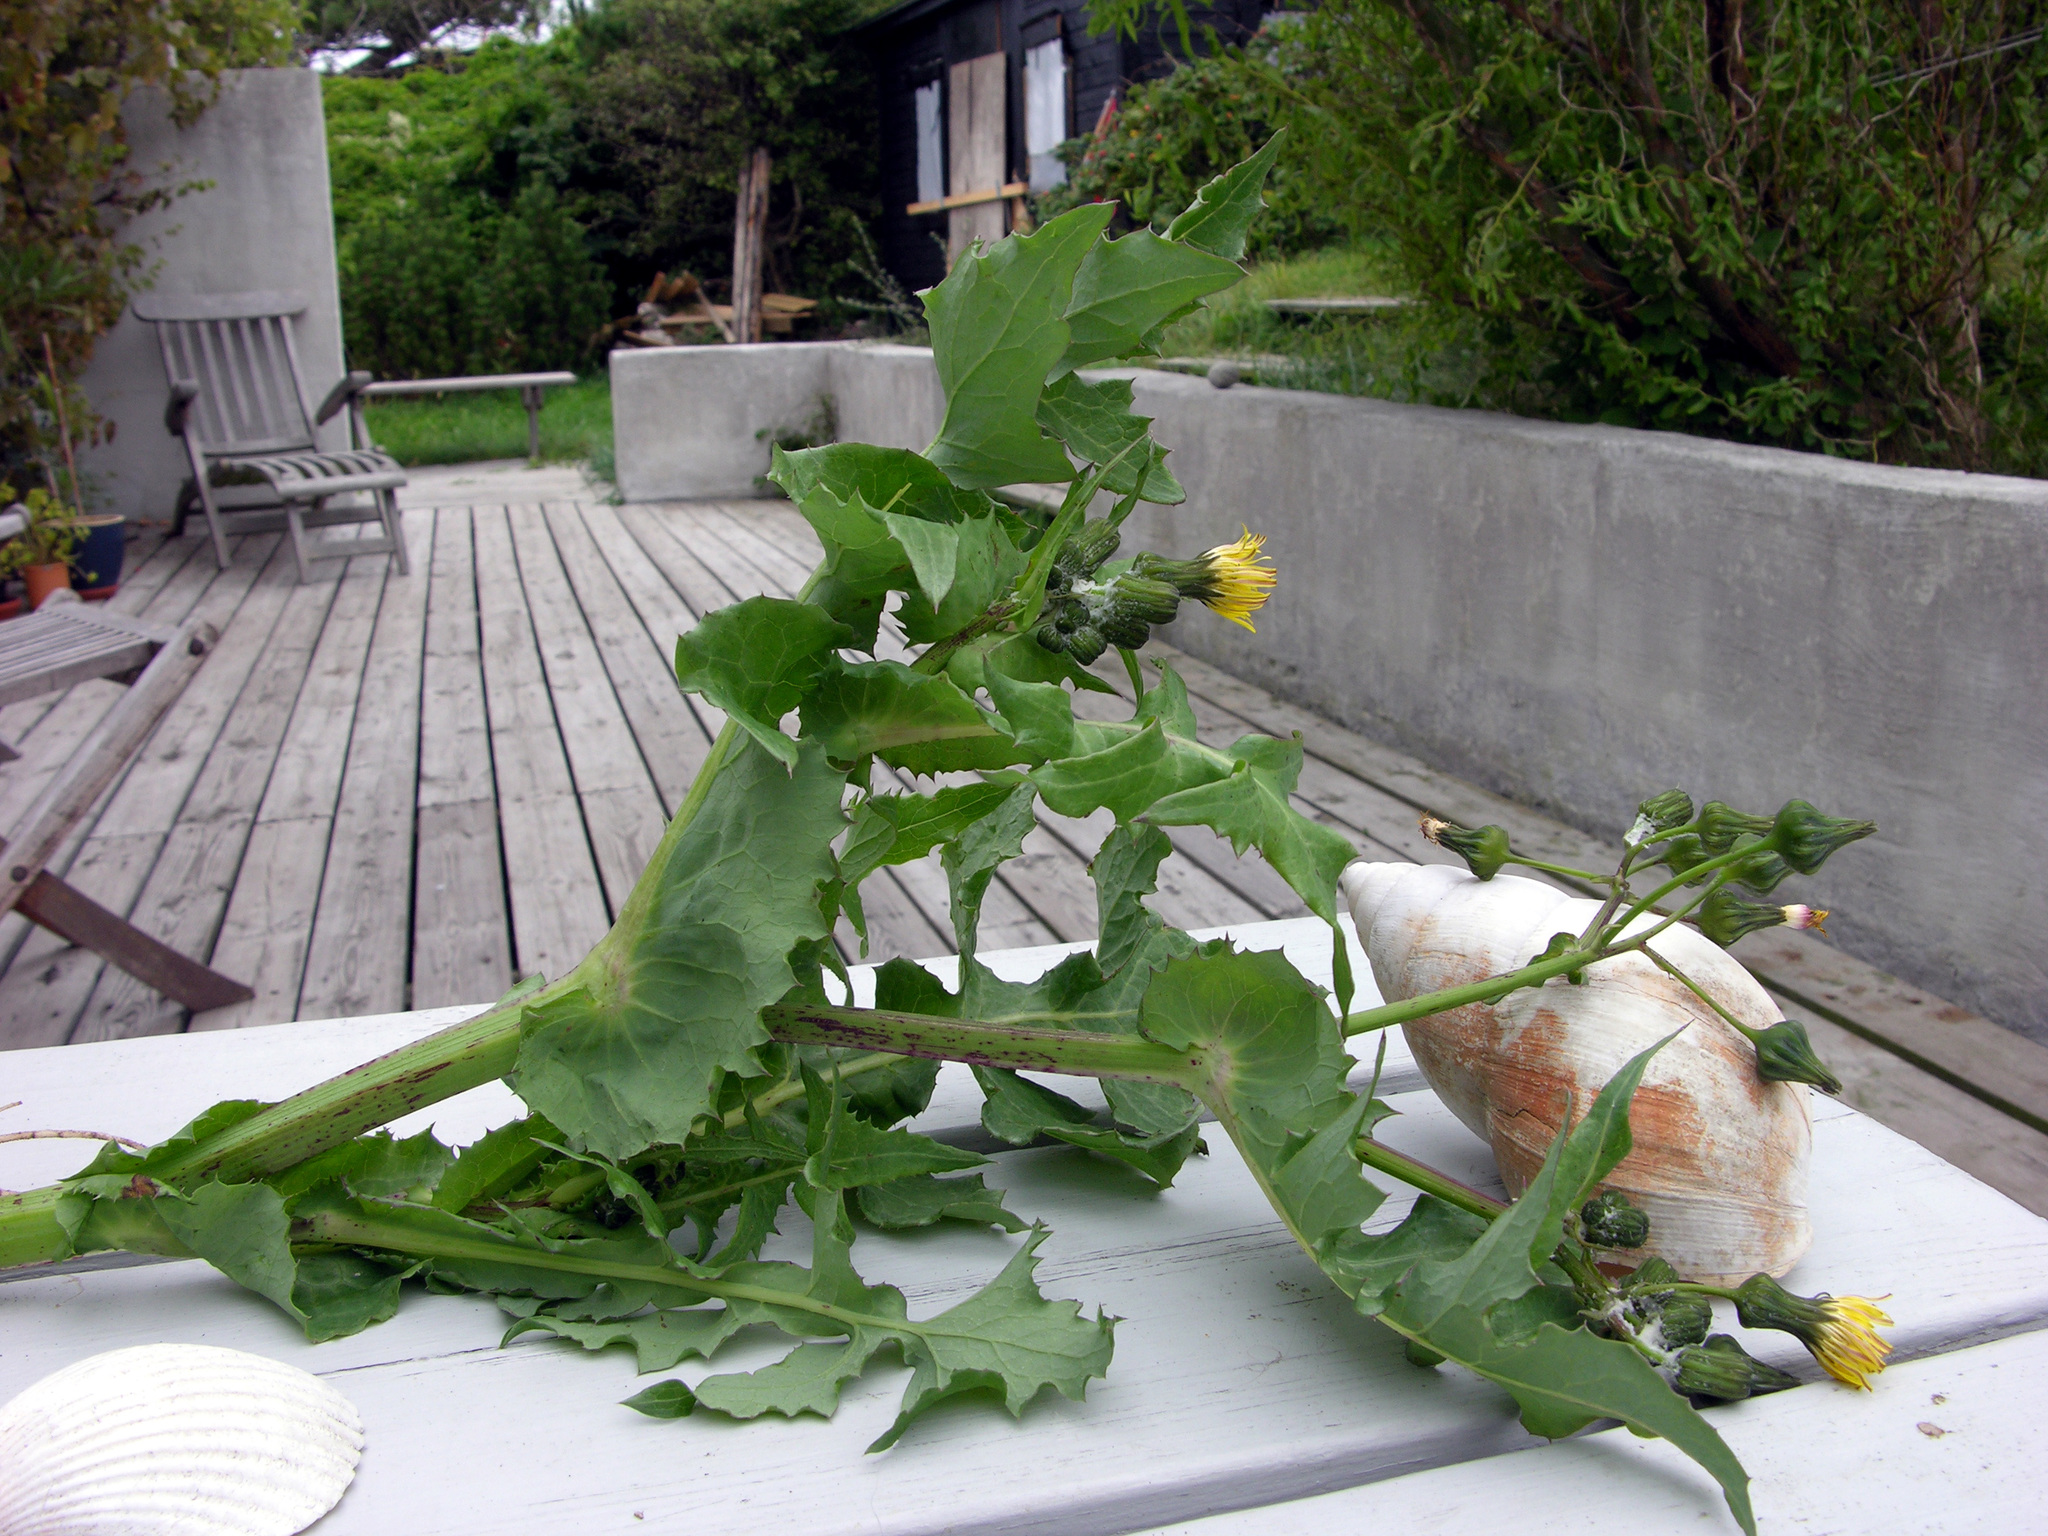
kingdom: Plantae
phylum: Tracheophyta
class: Magnoliopsida
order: Asterales
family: Asteraceae
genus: Sonchus
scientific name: Sonchus oleraceus
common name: Common sowthistle
